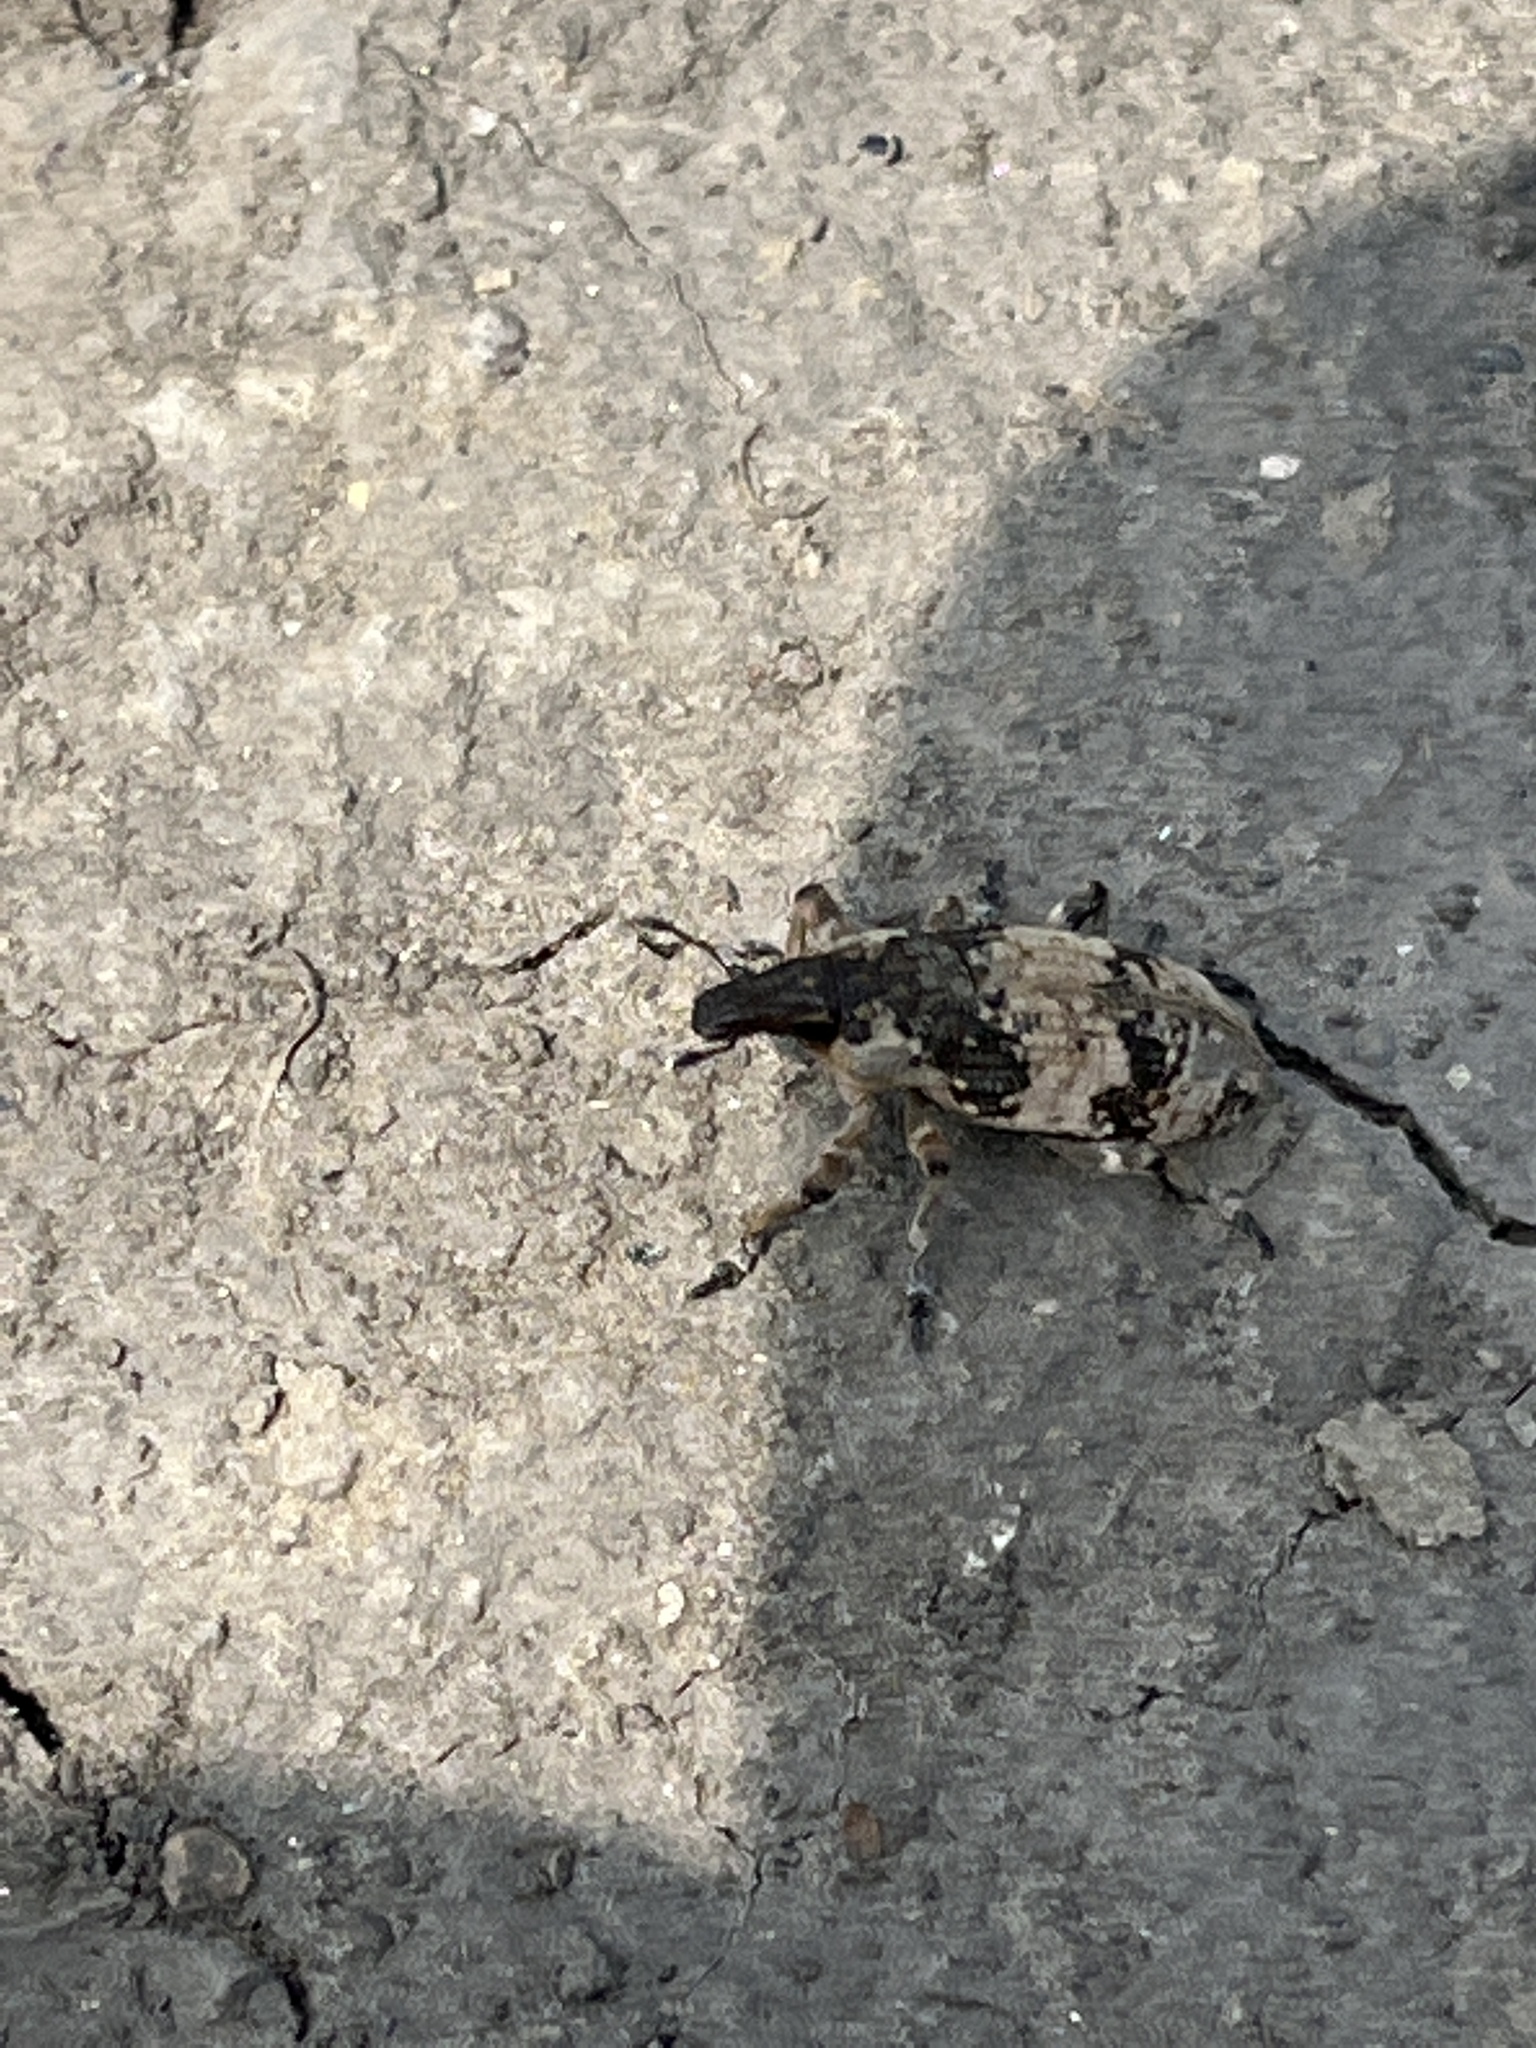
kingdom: Animalia
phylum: Arthropoda
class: Insecta
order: Coleoptera
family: Curculionidae
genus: Bothynoderes
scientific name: Bothynoderes affinis
